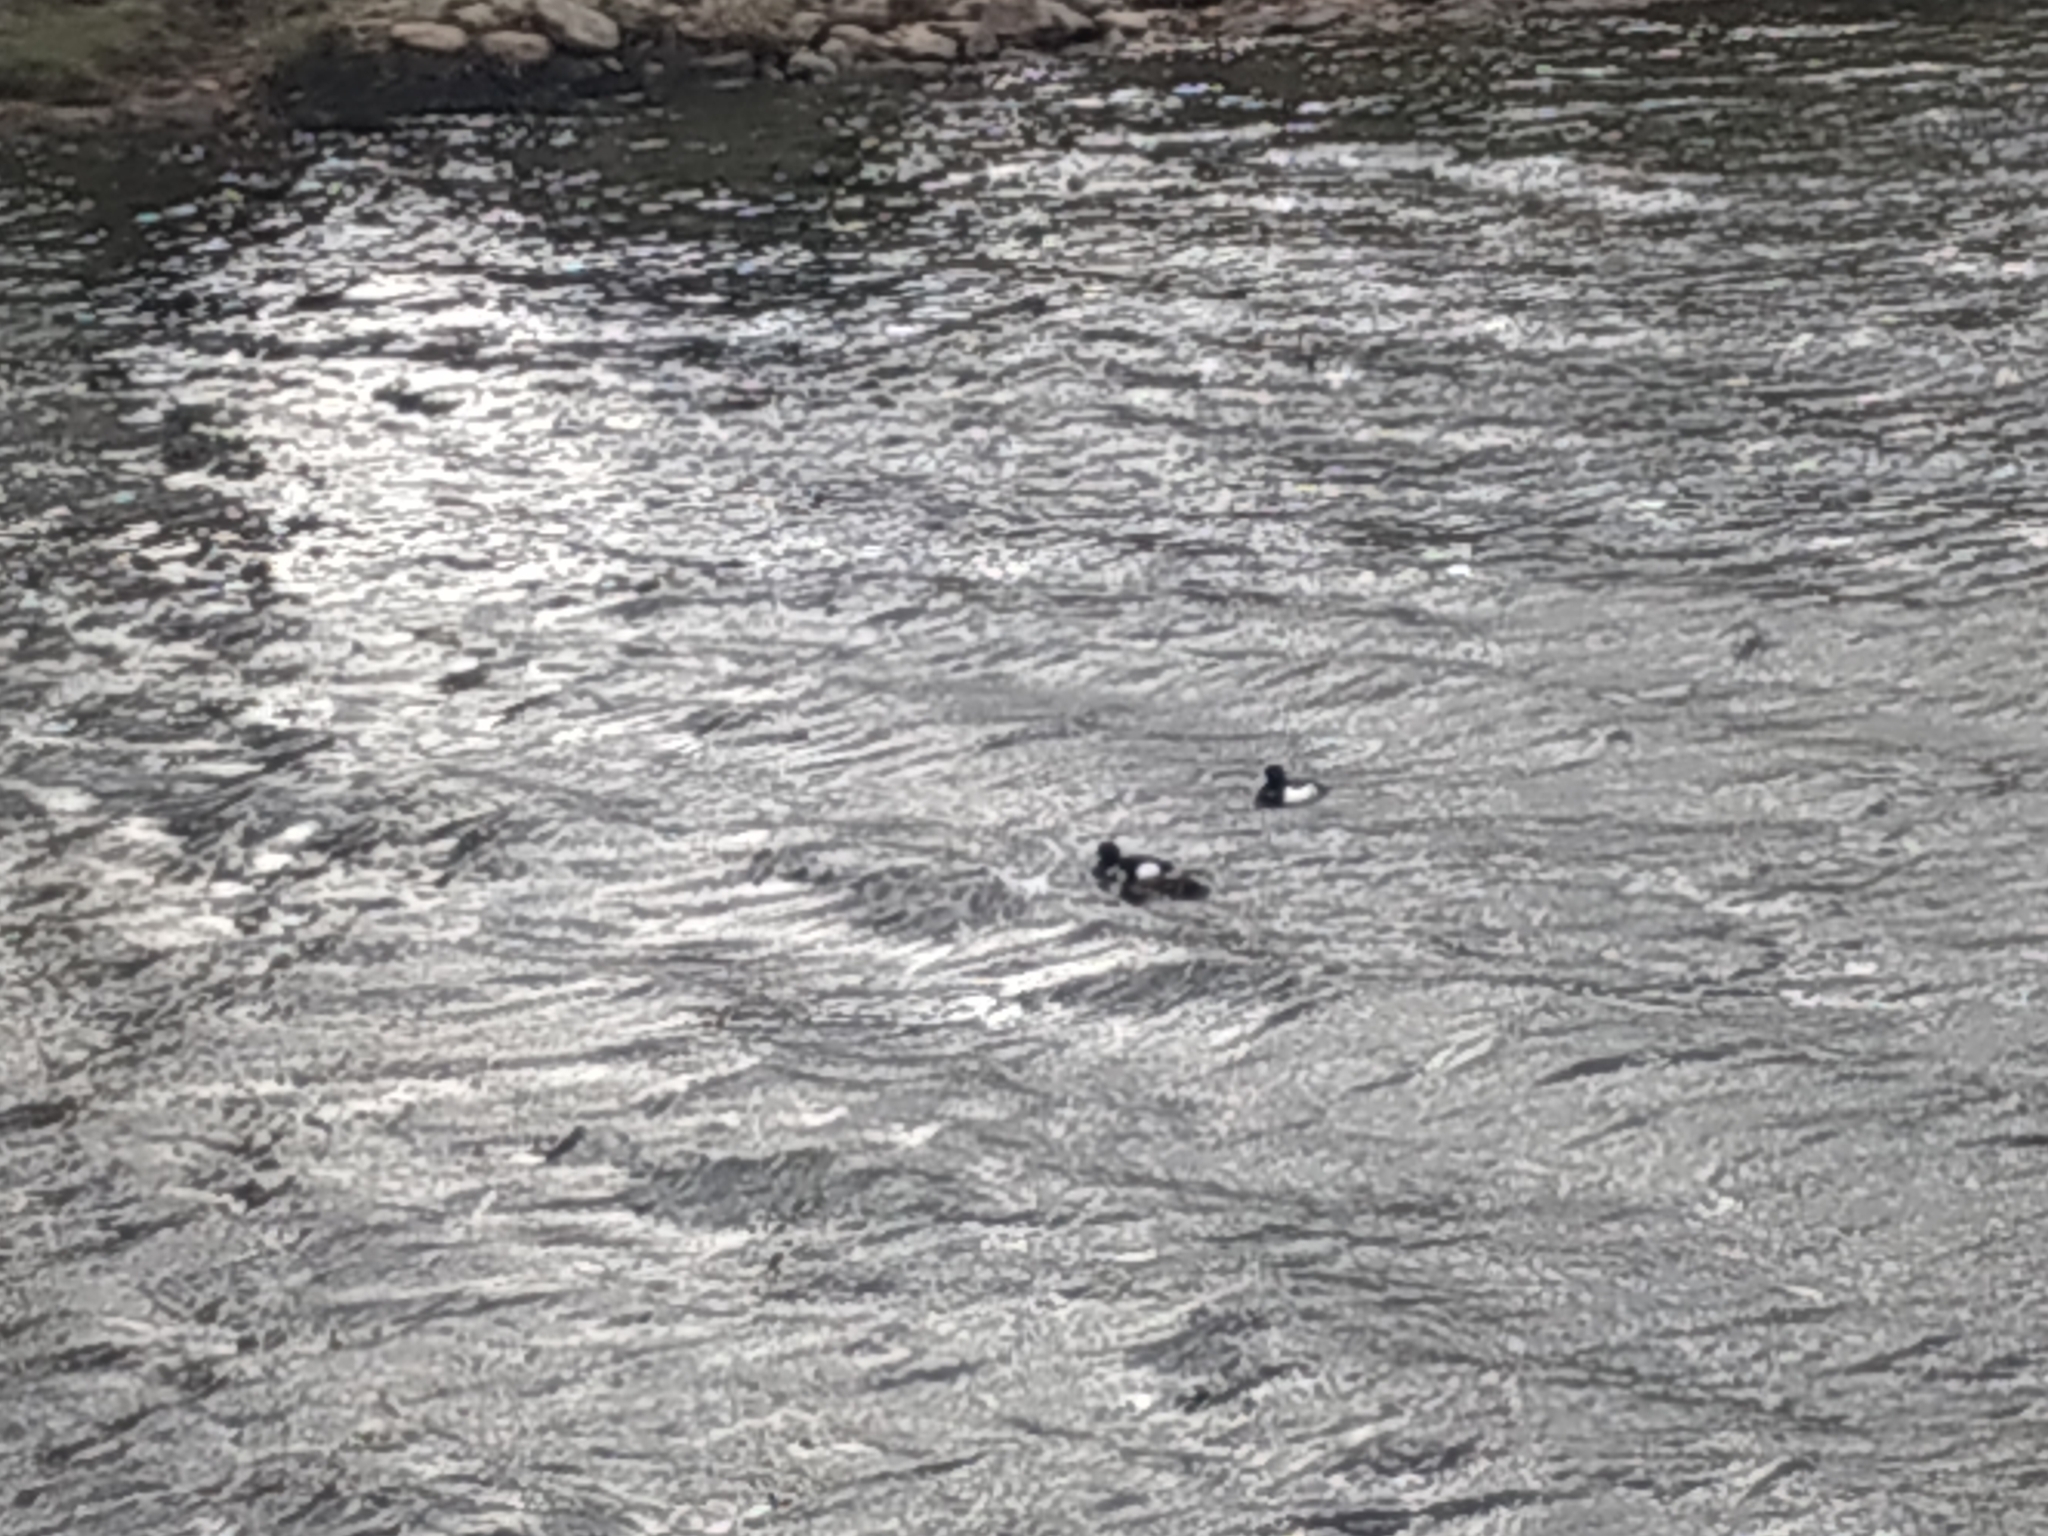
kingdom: Animalia
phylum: Chordata
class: Aves
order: Anseriformes
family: Anatidae
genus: Aythya
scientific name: Aythya fuligula
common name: Tufted duck
